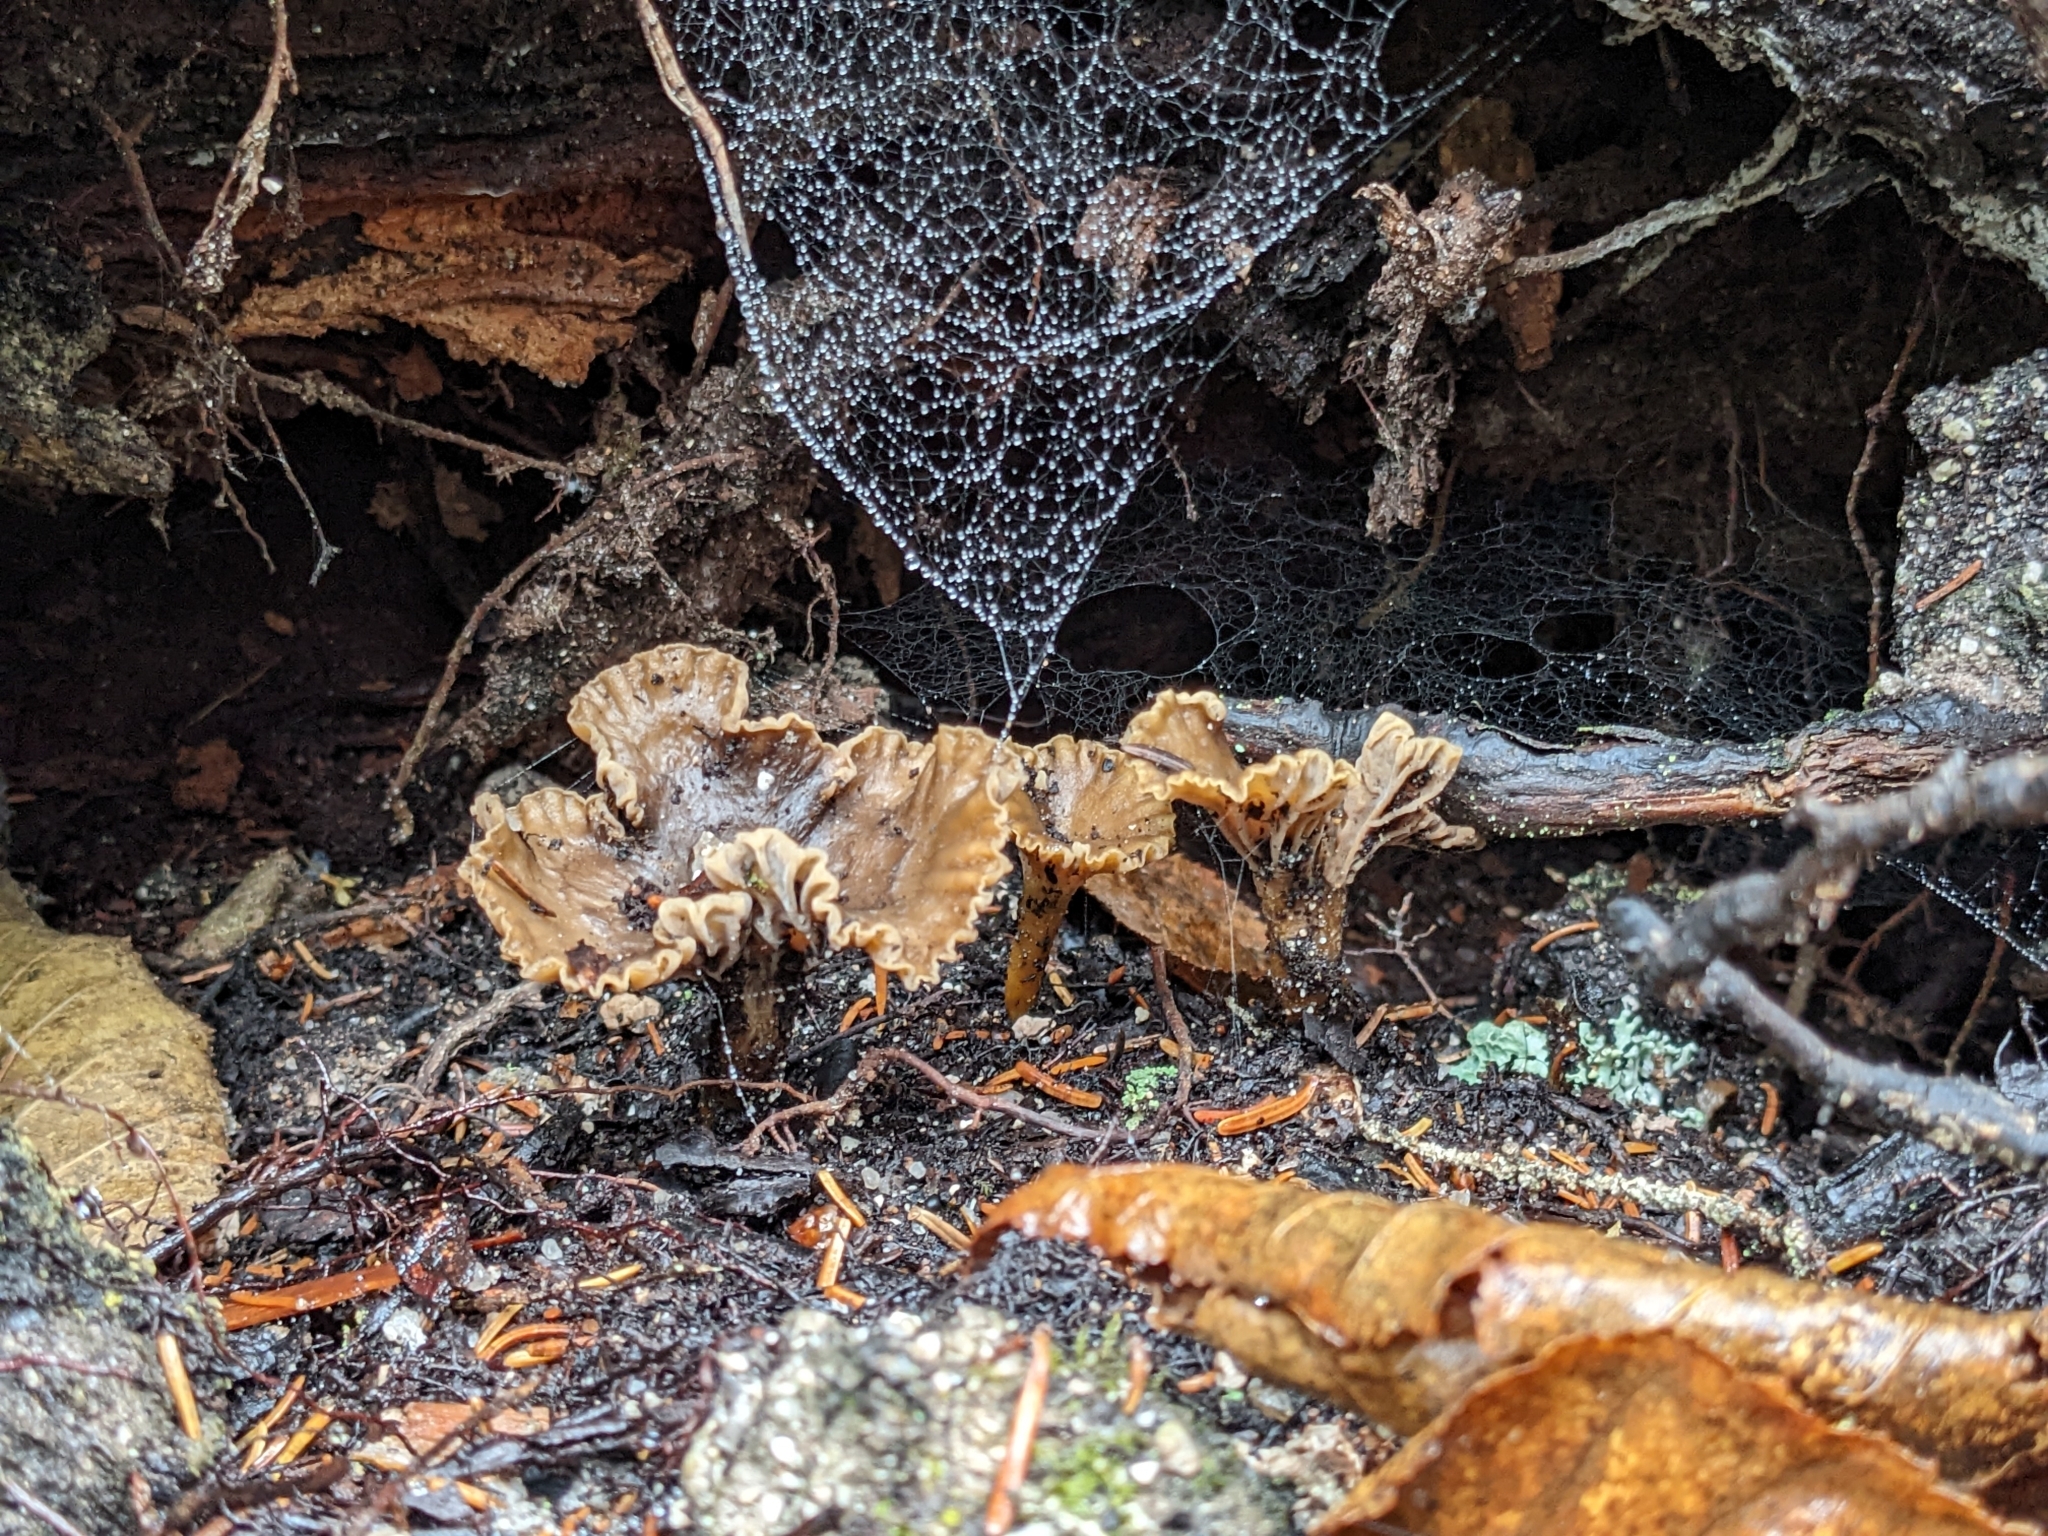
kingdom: Fungi
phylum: Basidiomycota
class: Agaricomycetes
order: Cantharellales
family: Hydnaceae
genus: Craterellus
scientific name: Craterellus tubaeformis
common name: Yellowfoot
